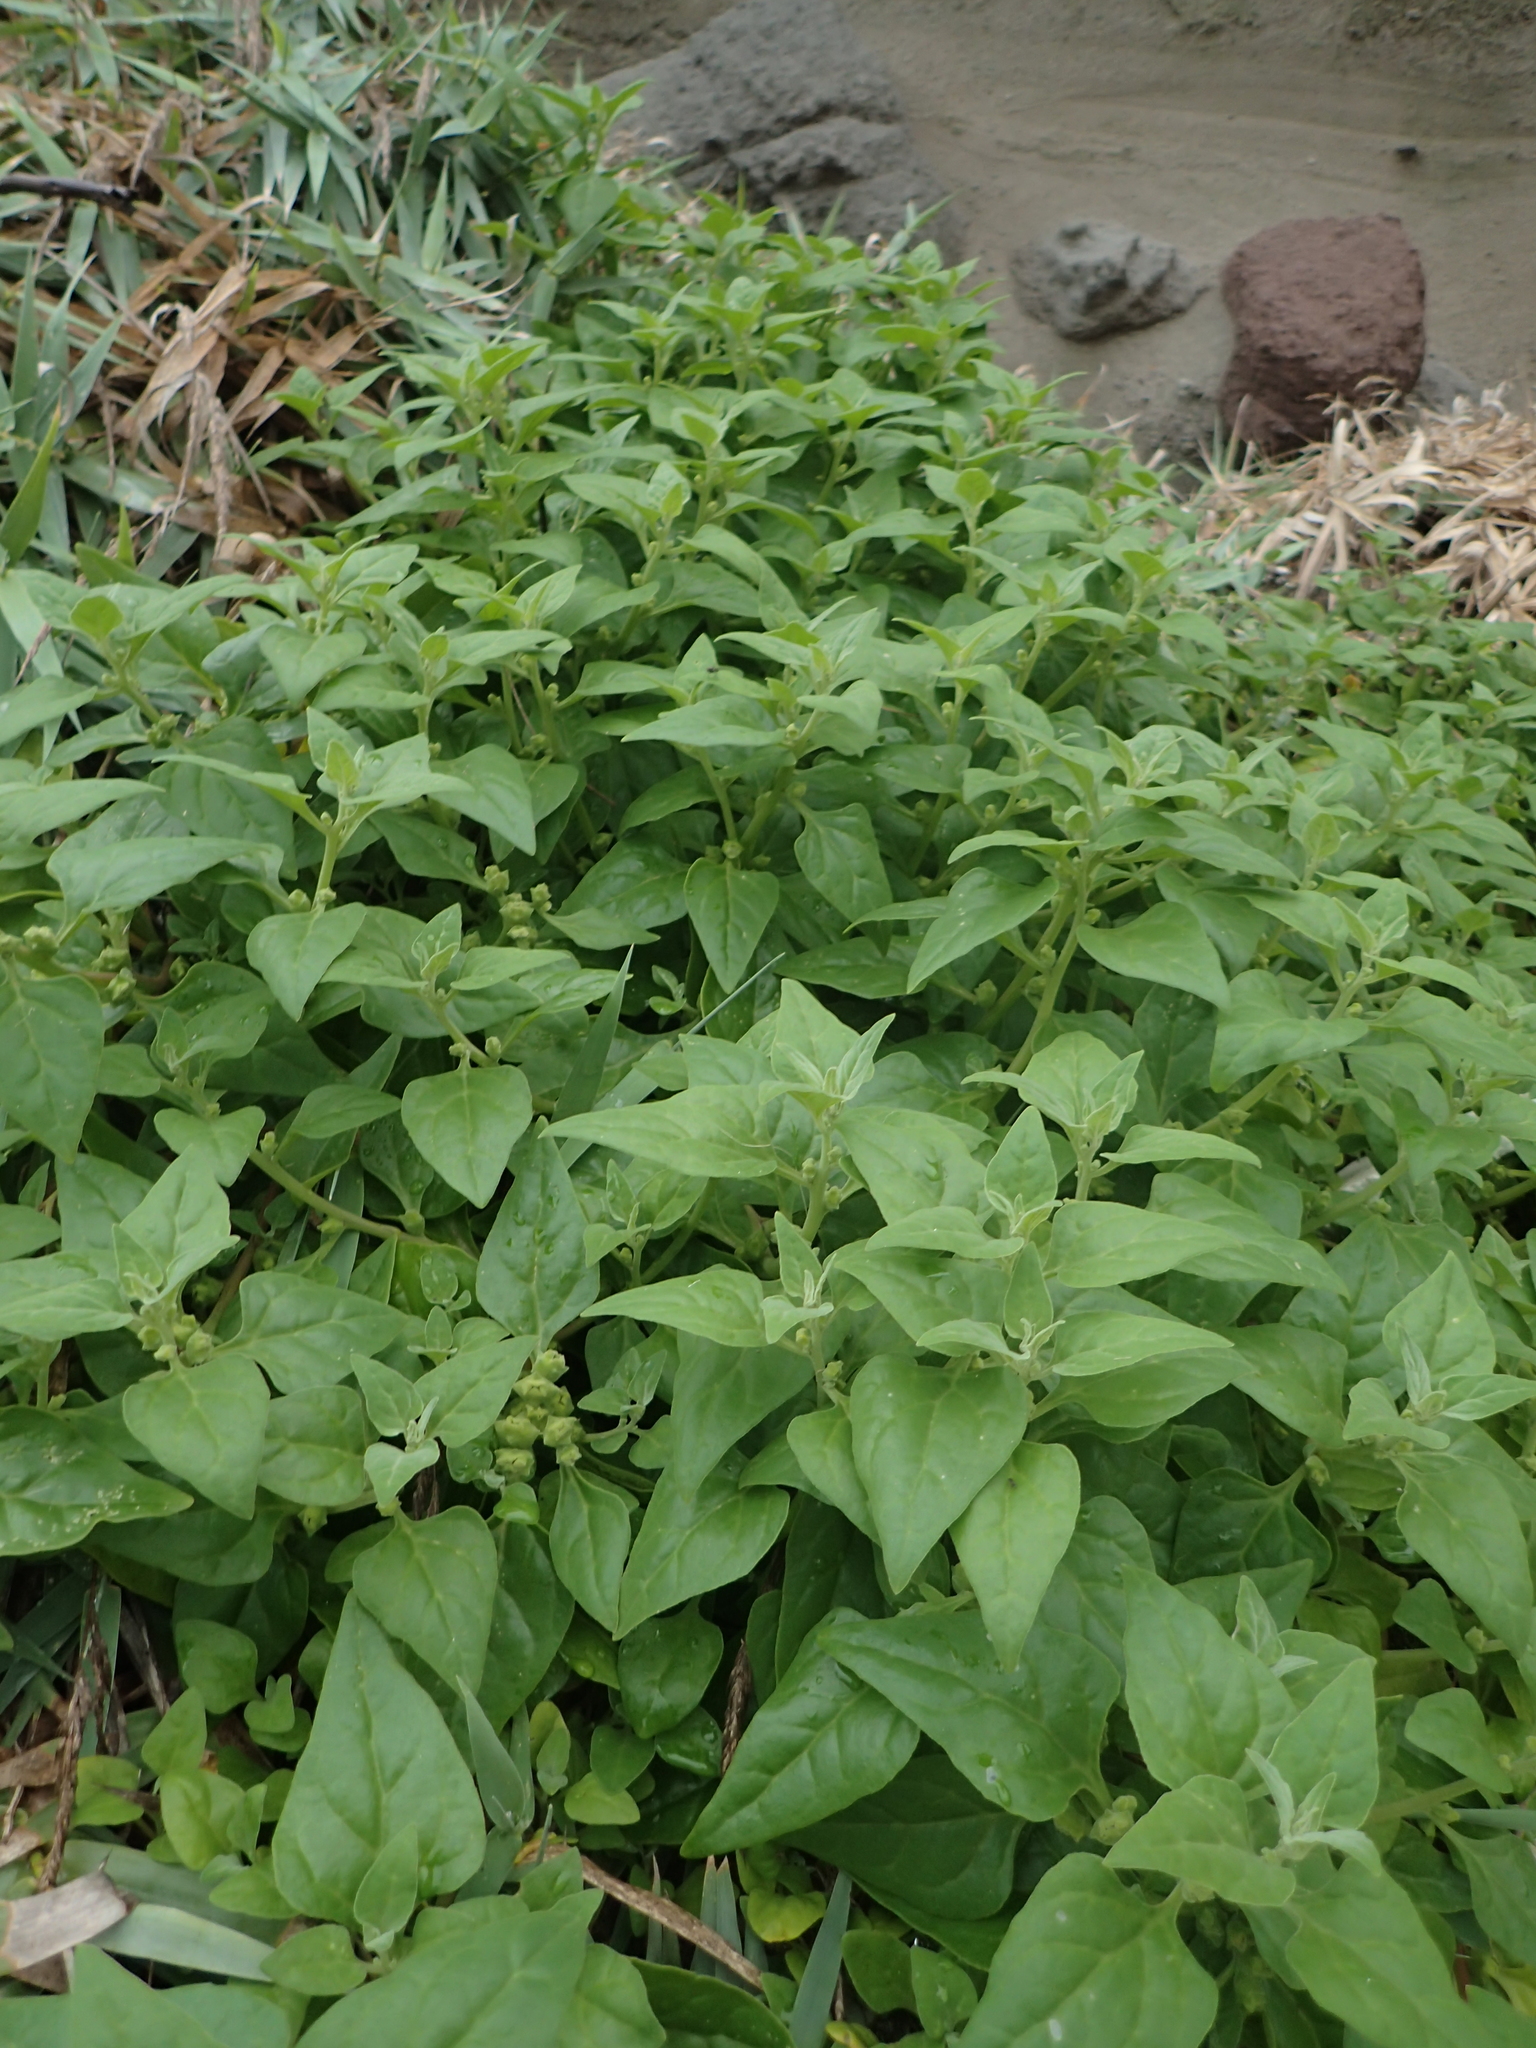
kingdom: Plantae
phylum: Tracheophyta
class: Magnoliopsida
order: Caryophyllales
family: Aizoaceae
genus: Tetragonia
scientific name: Tetragonia tetragonoides
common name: New zealand-spinach
